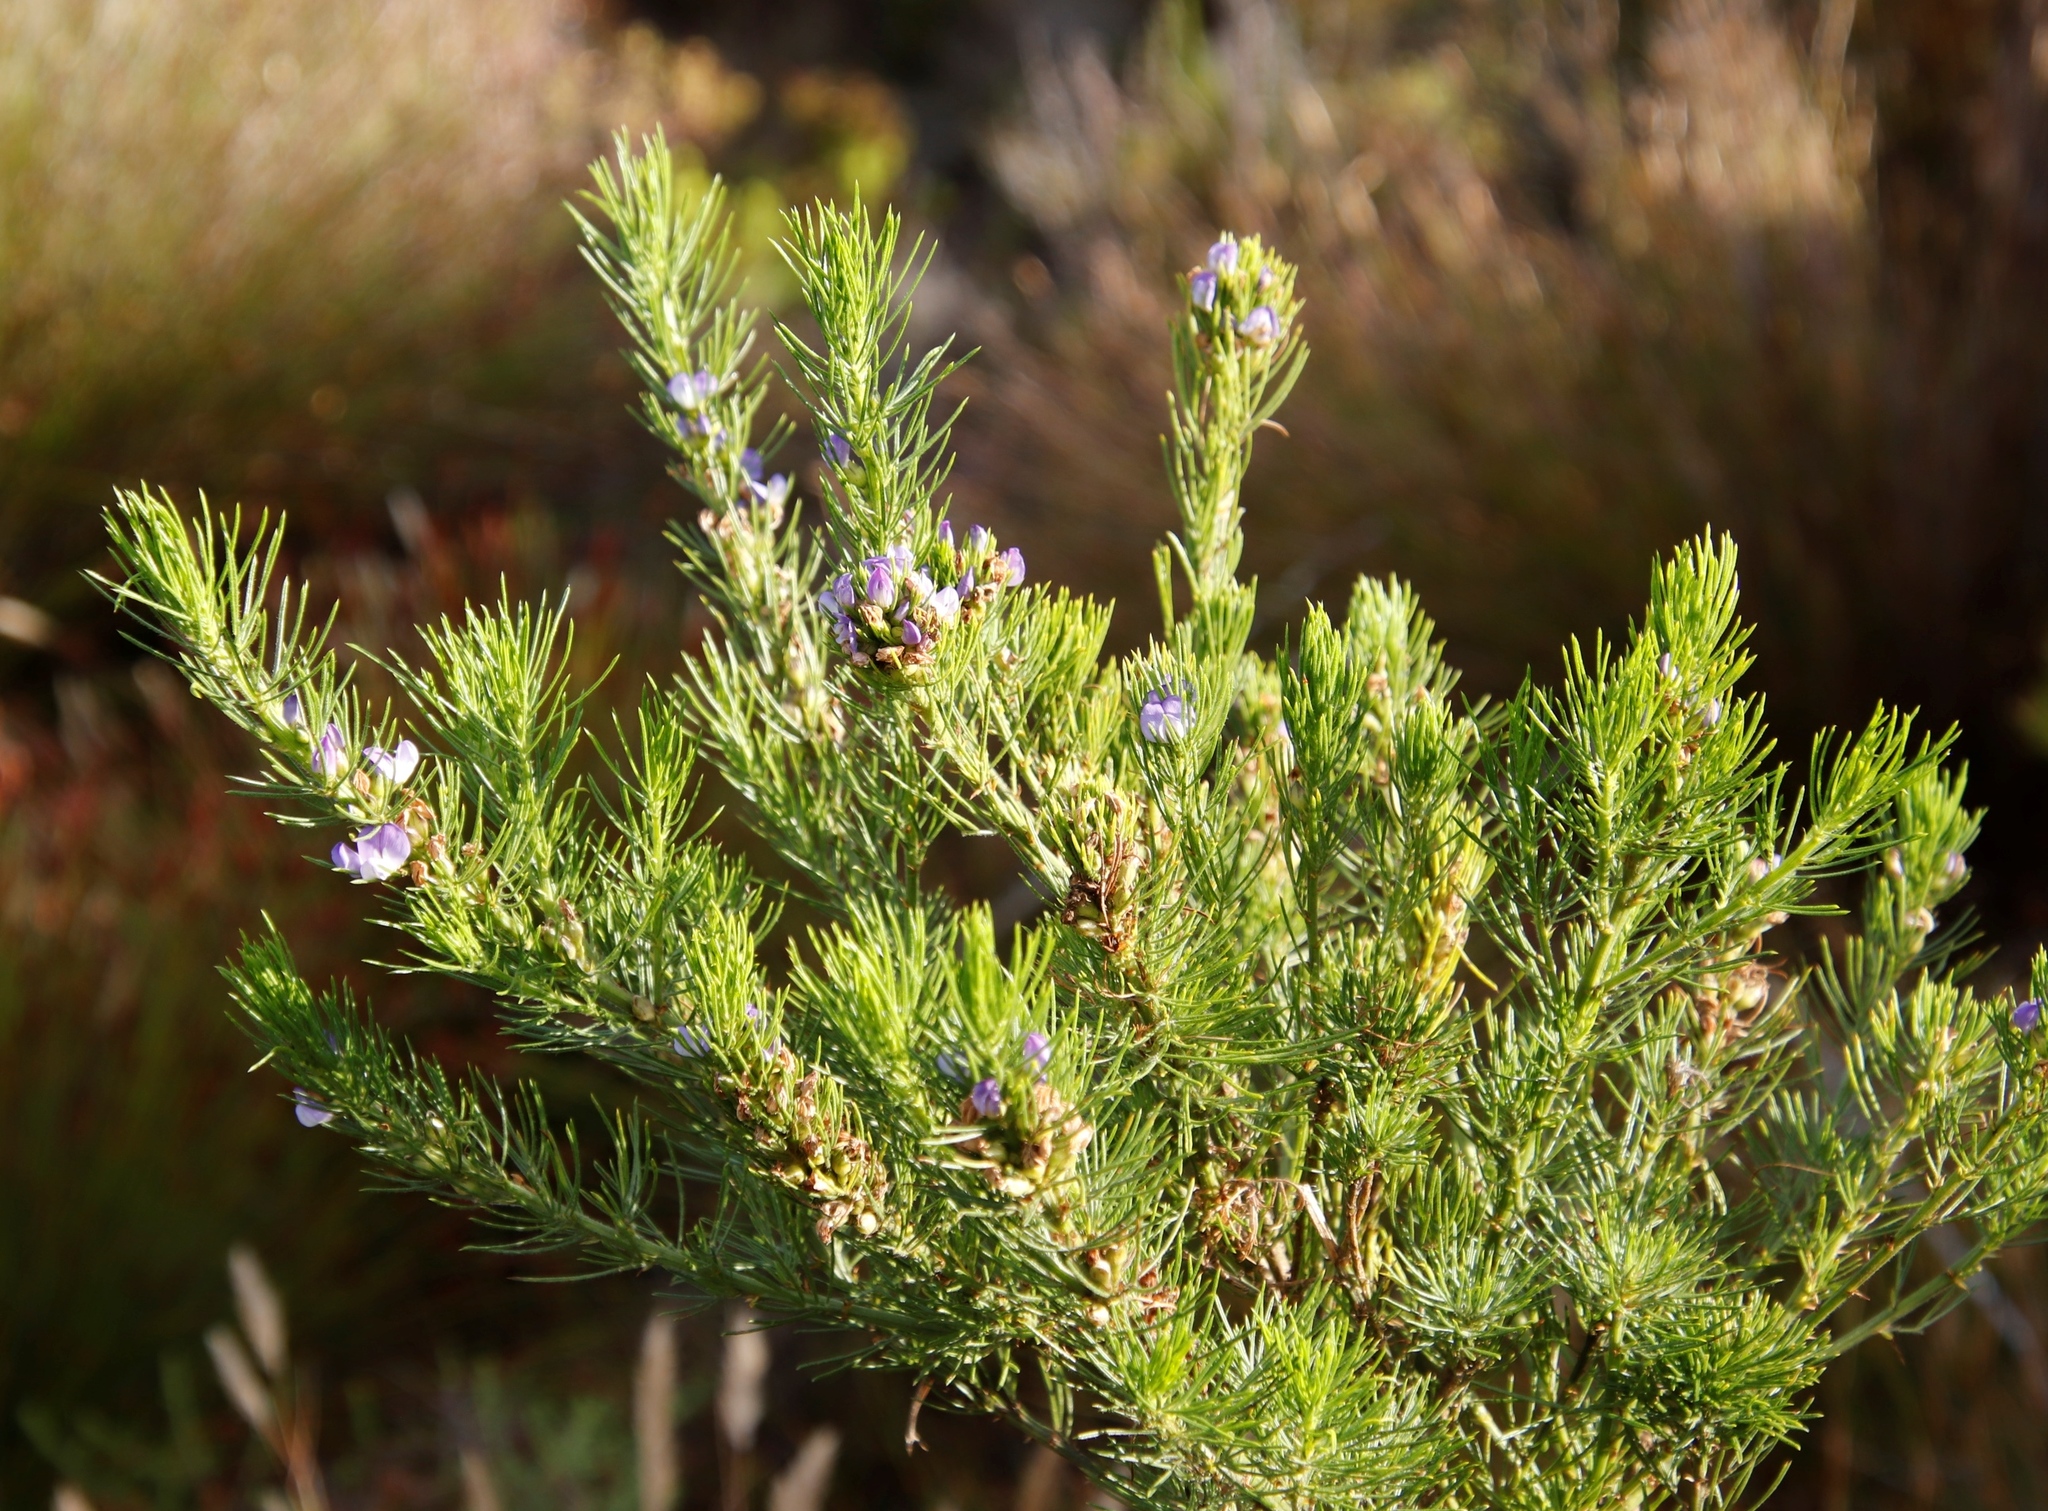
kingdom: Plantae
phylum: Tracheophyta
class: Magnoliopsida
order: Fabales
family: Fabaceae
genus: Psoralea
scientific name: Psoralea pinnata
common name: African scurfpea
